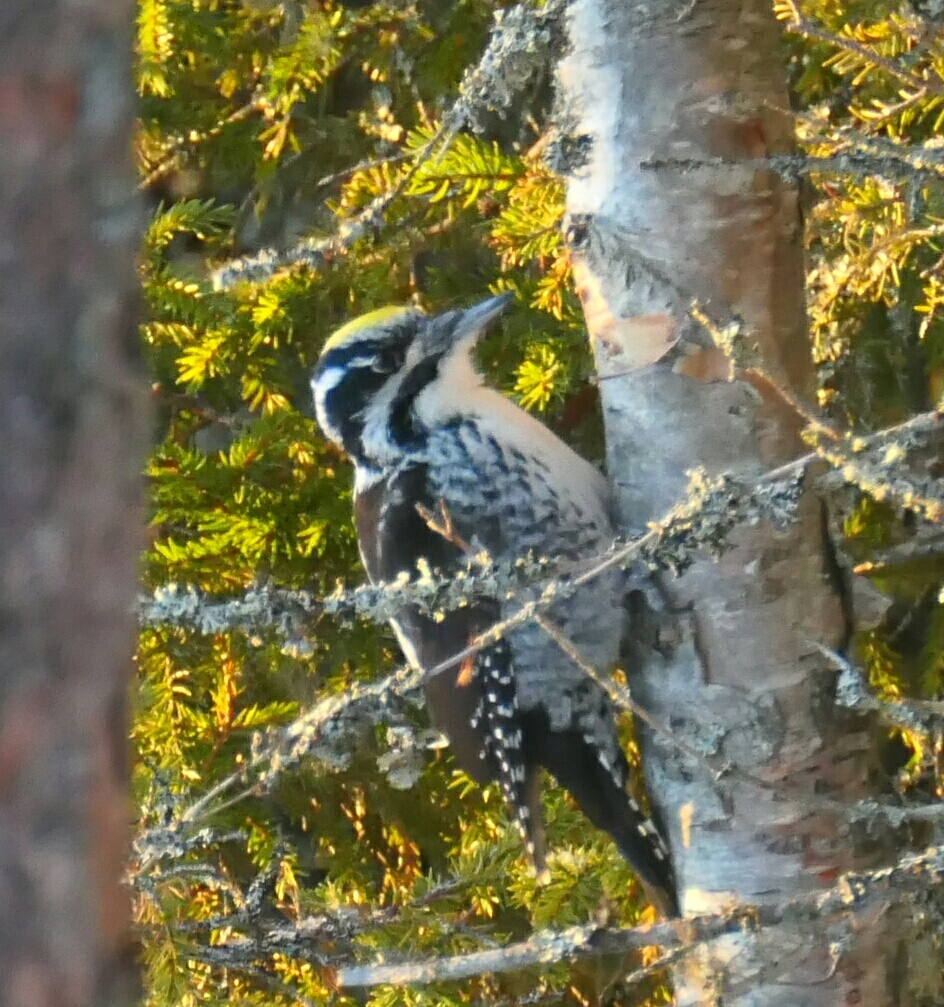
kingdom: Animalia
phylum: Chordata
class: Aves
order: Piciformes
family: Picidae
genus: Picoides
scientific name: Picoides tridactylus
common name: Eurasian three-toed woodpecker
